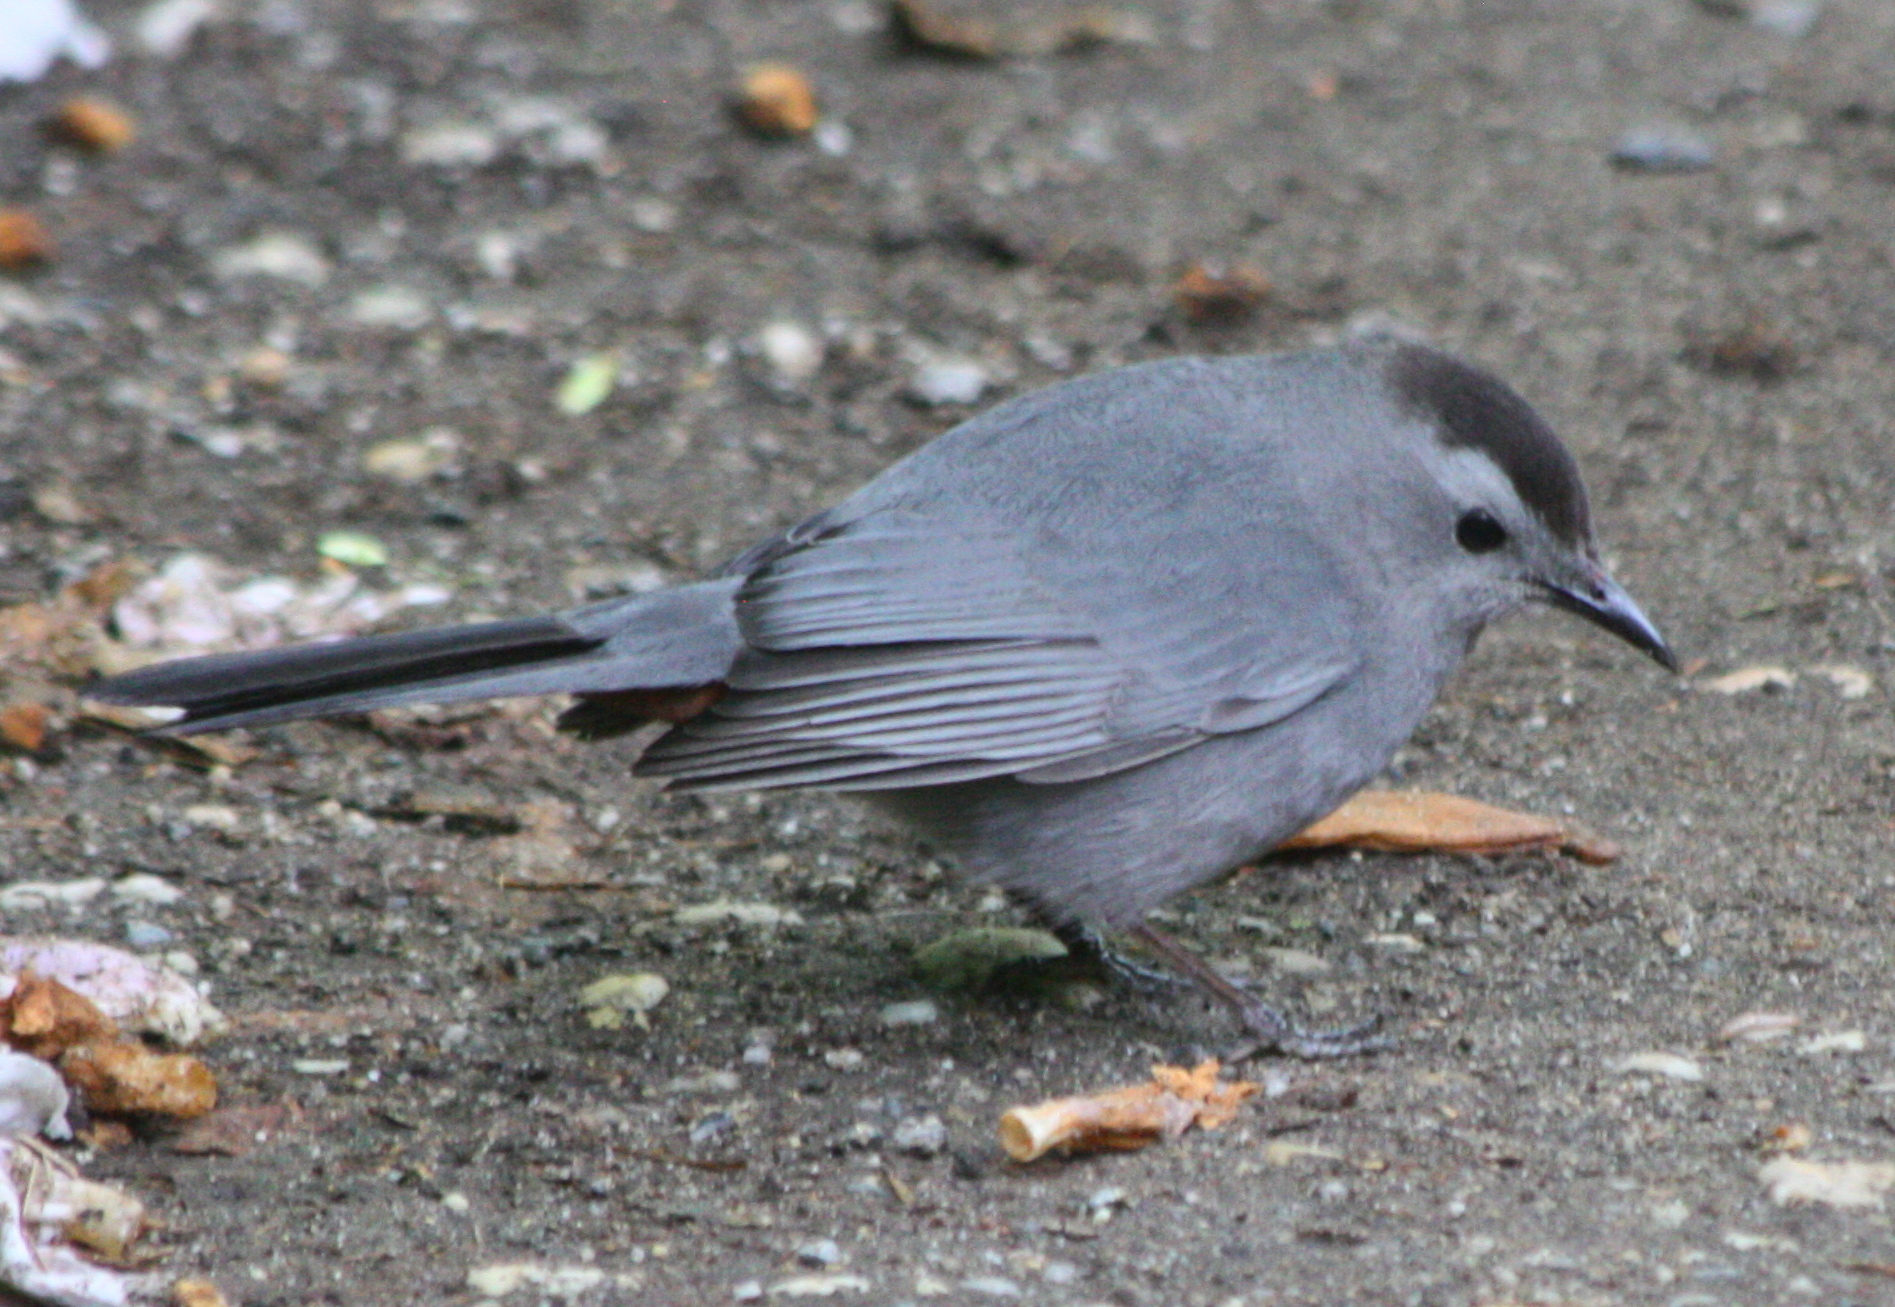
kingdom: Animalia
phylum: Chordata
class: Aves
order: Passeriformes
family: Mimidae
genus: Dumetella
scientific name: Dumetella carolinensis
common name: Gray catbird
